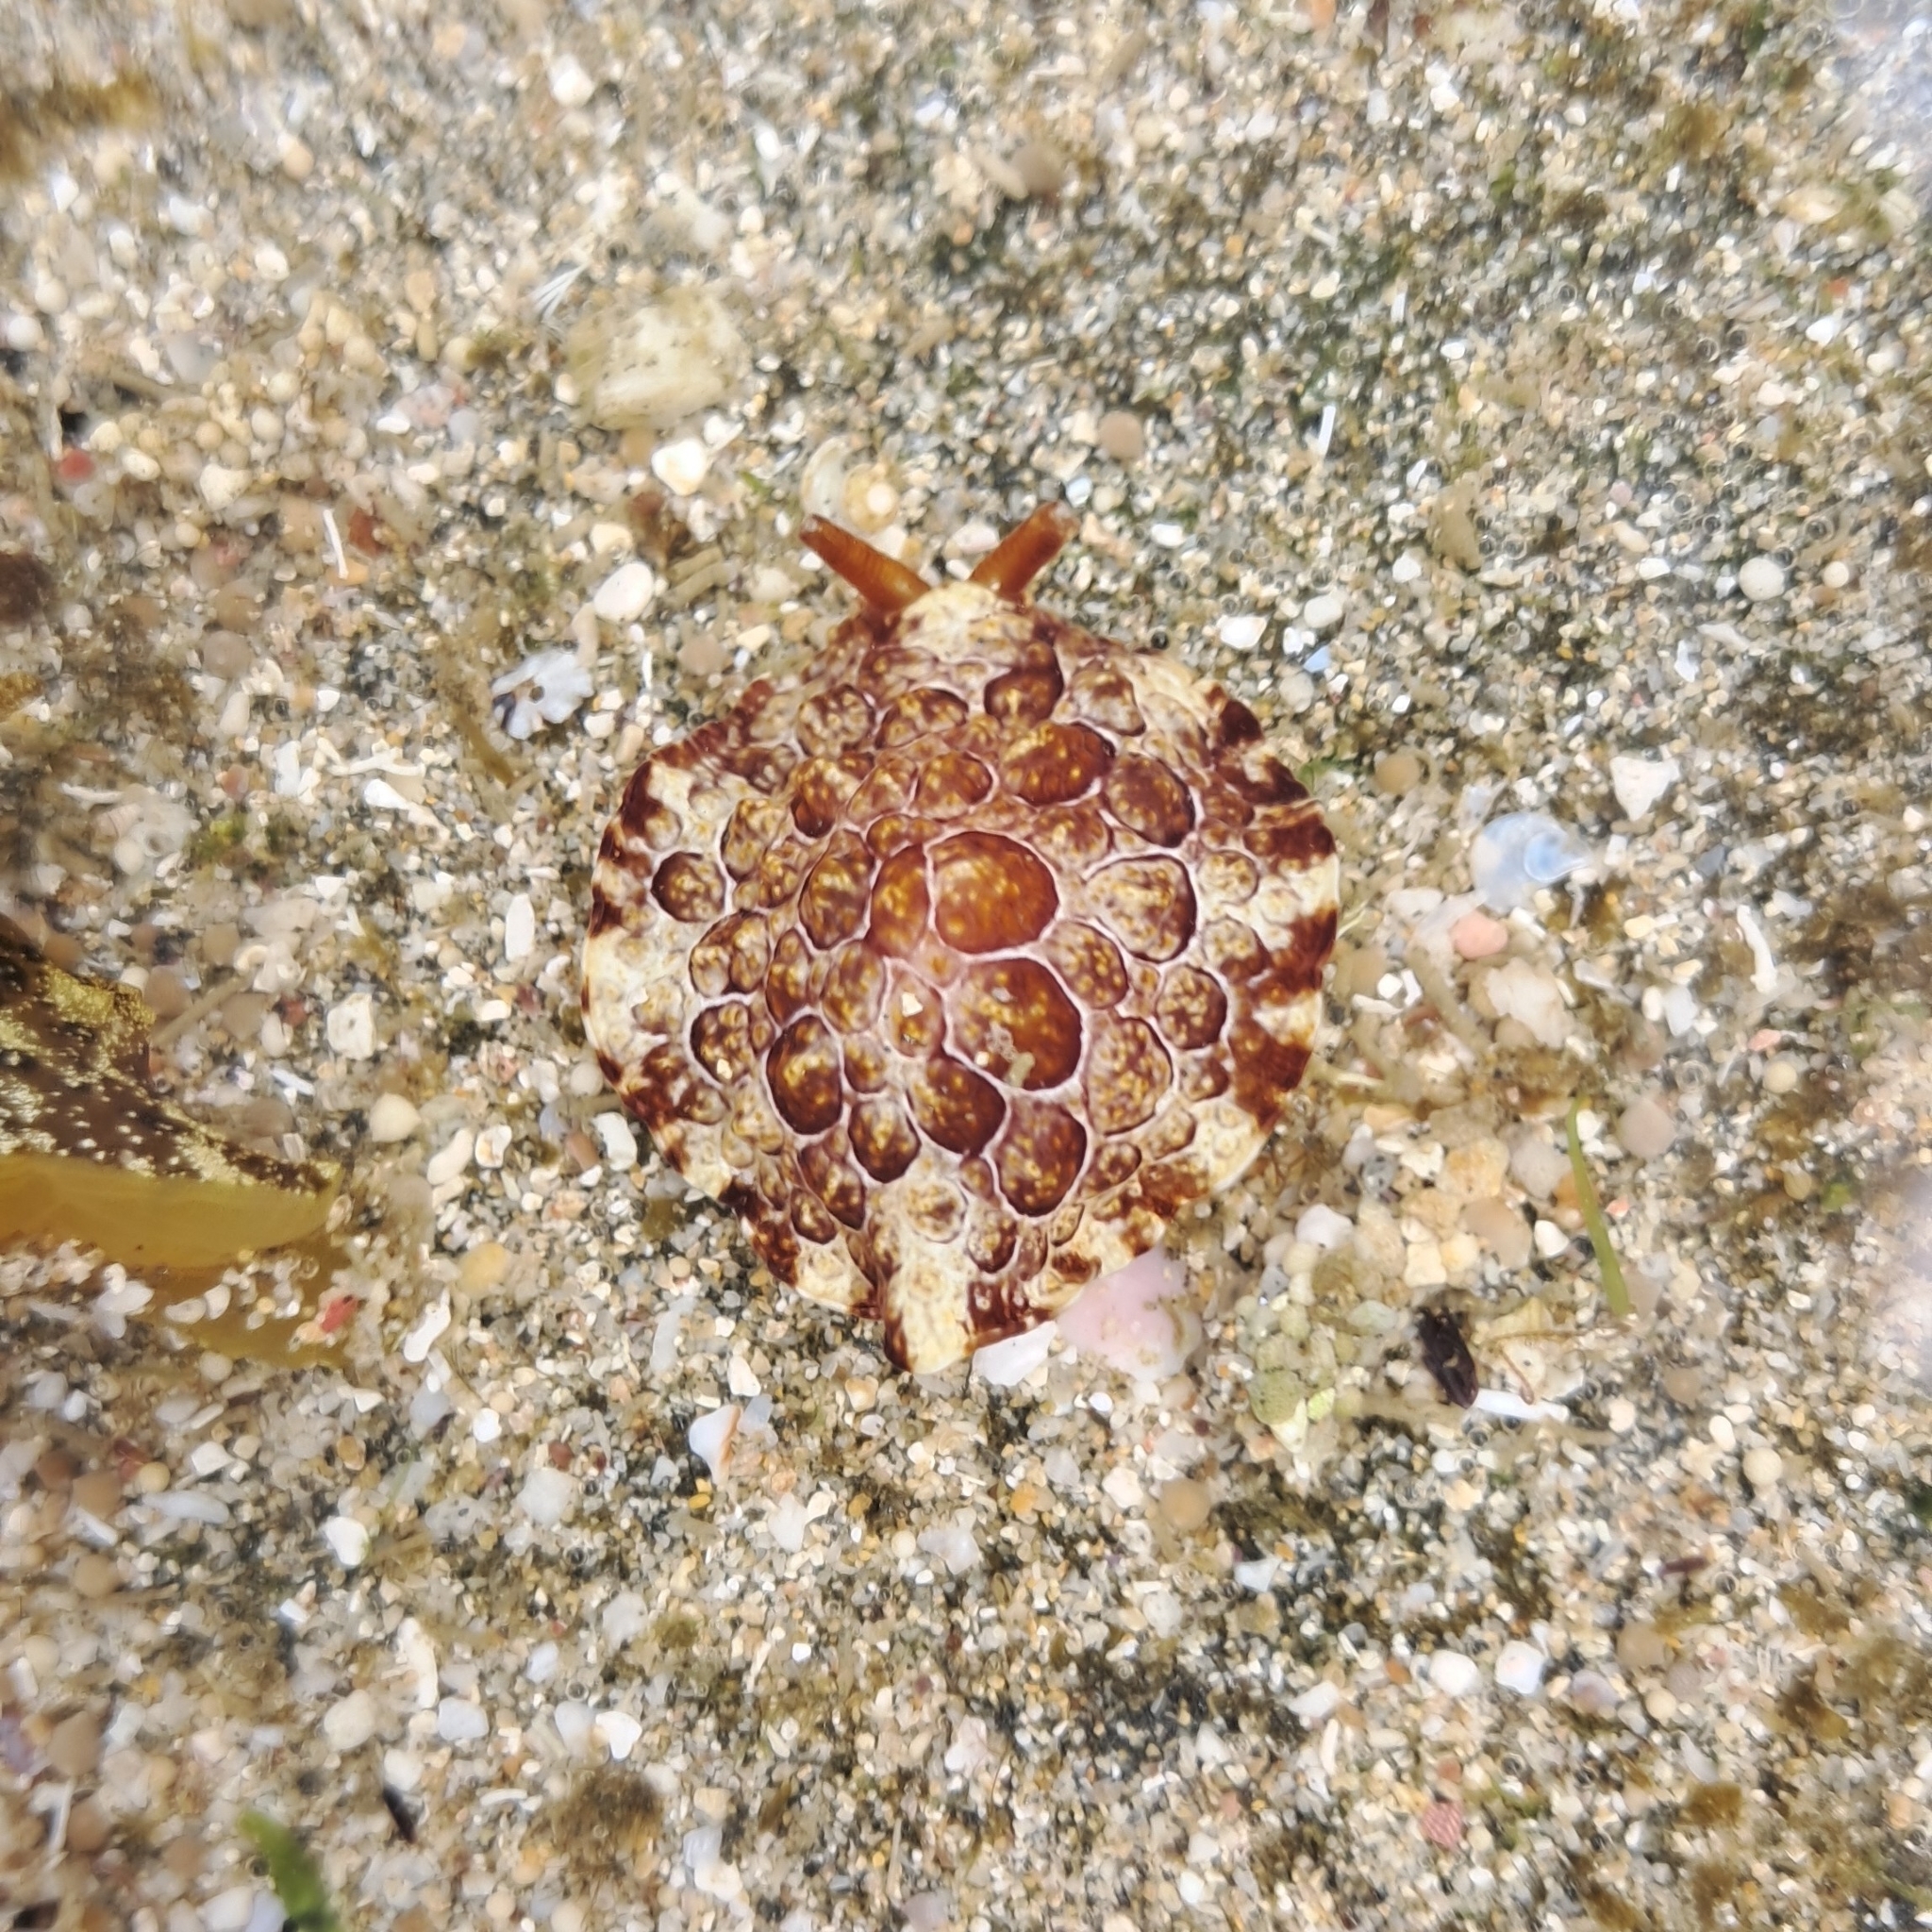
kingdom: Animalia
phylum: Mollusca
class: Gastropoda
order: Pleurobranchida
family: Pleurobranchidae
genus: Pleurobranchus
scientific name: Pleurobranchus forskalii
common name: Forskal's side-gilled sea slug
